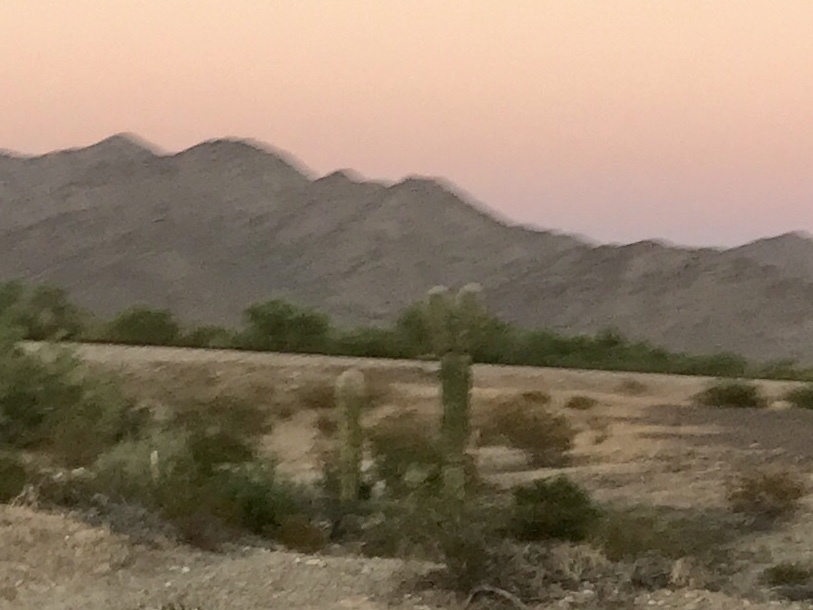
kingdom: Plantae
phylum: Tracheophyta
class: Magnoliopsida
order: Caryophyllales
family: Cactaceae
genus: Carnegiea
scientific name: Carnegiea gigantea
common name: Saguaro
